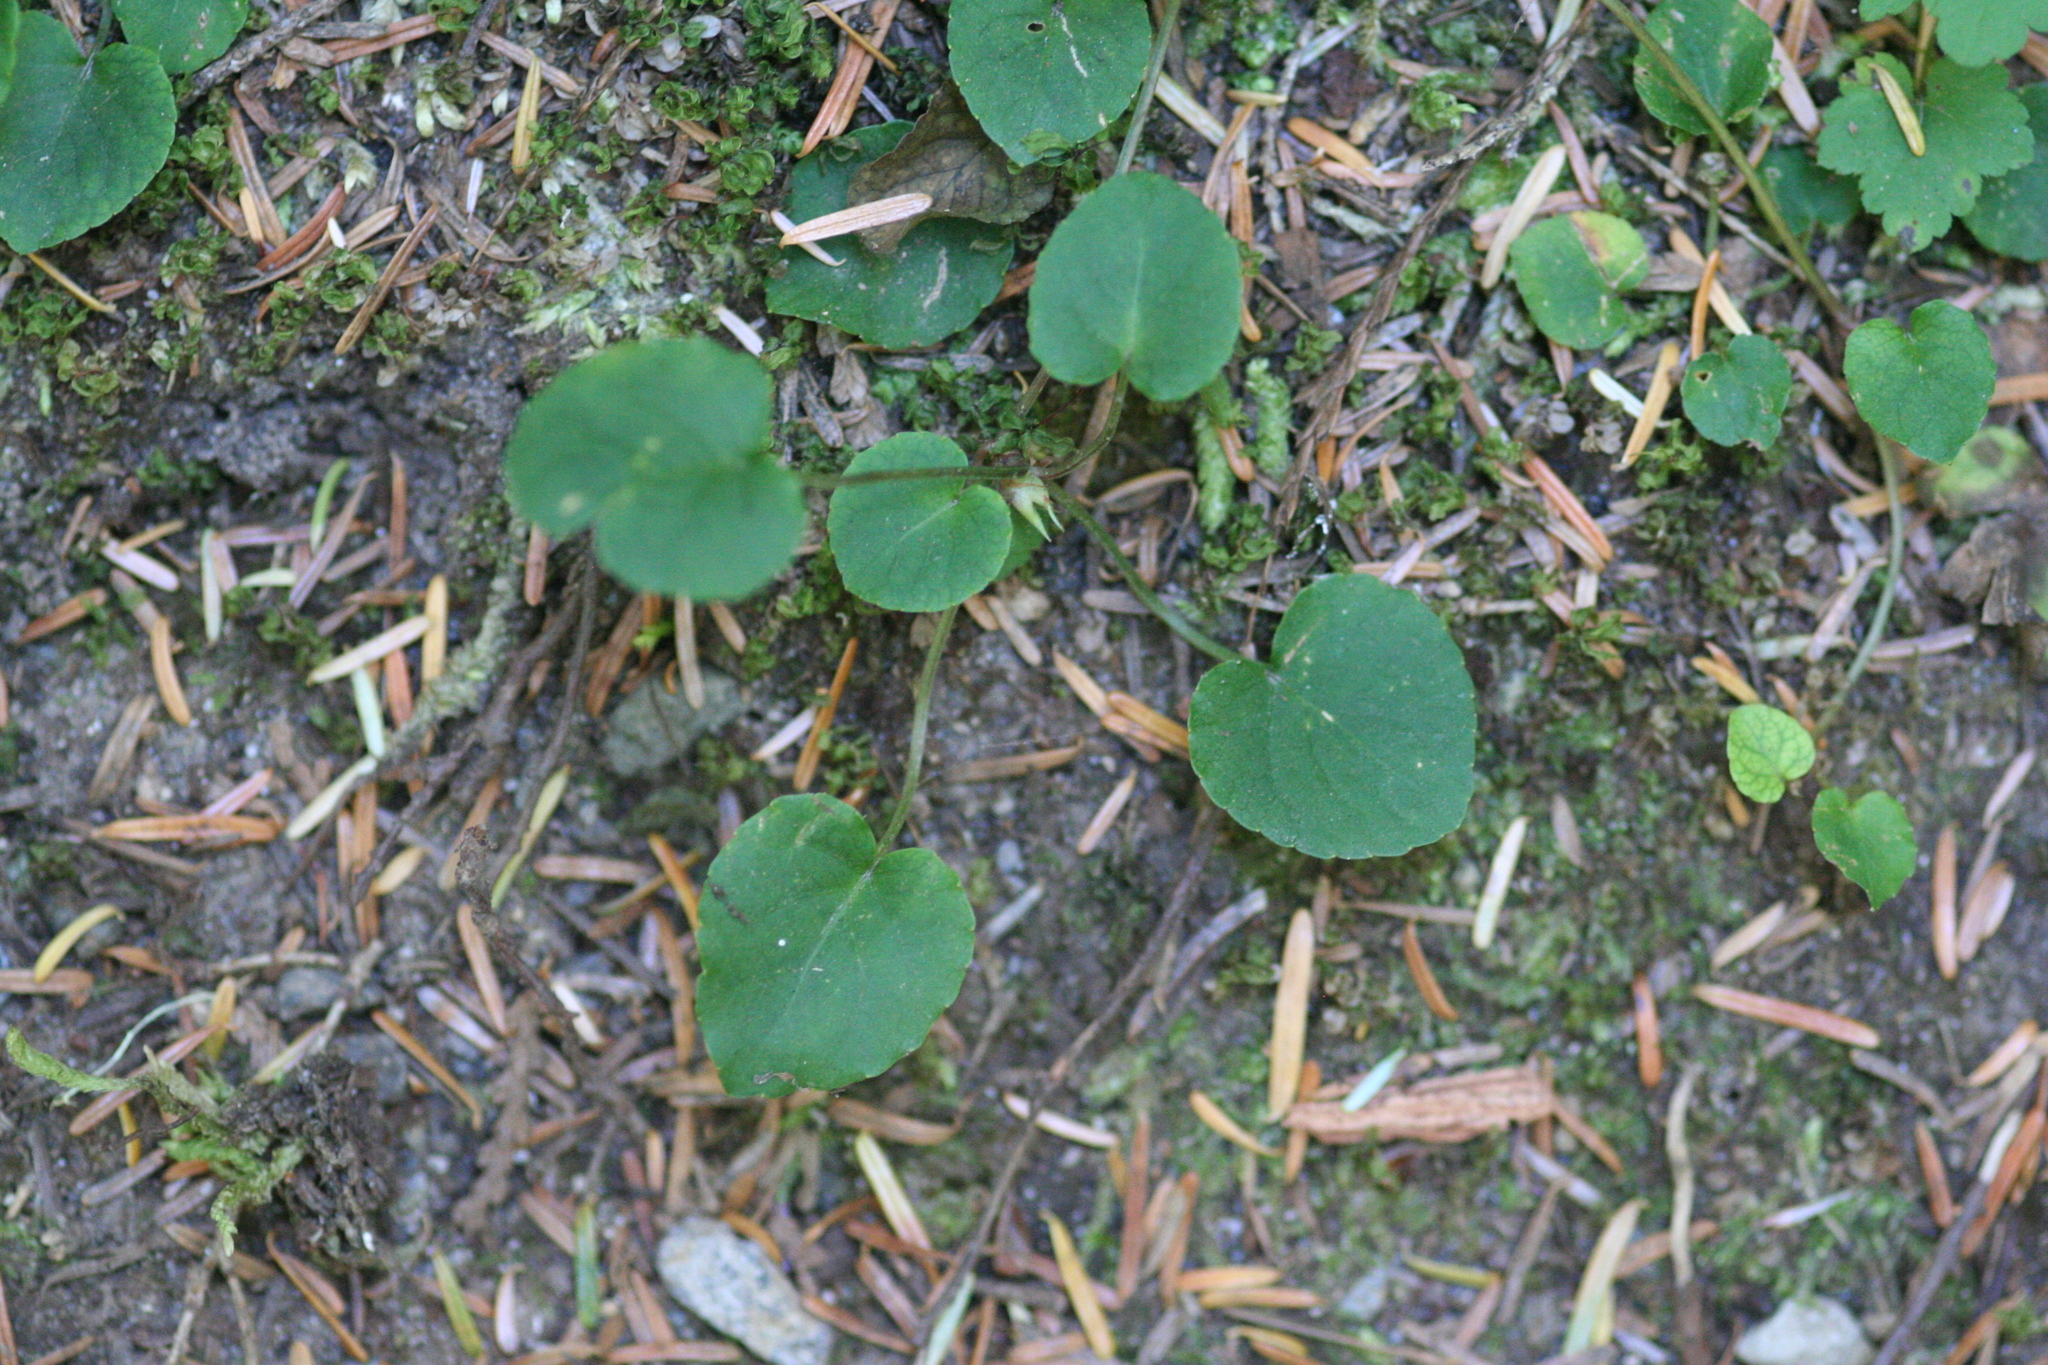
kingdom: Plantae
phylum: Tracheophyta
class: Magnoliopsida
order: Malpighiales
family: Violaceae
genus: Viola
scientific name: Viola sempervirens
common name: Evergreen violet
